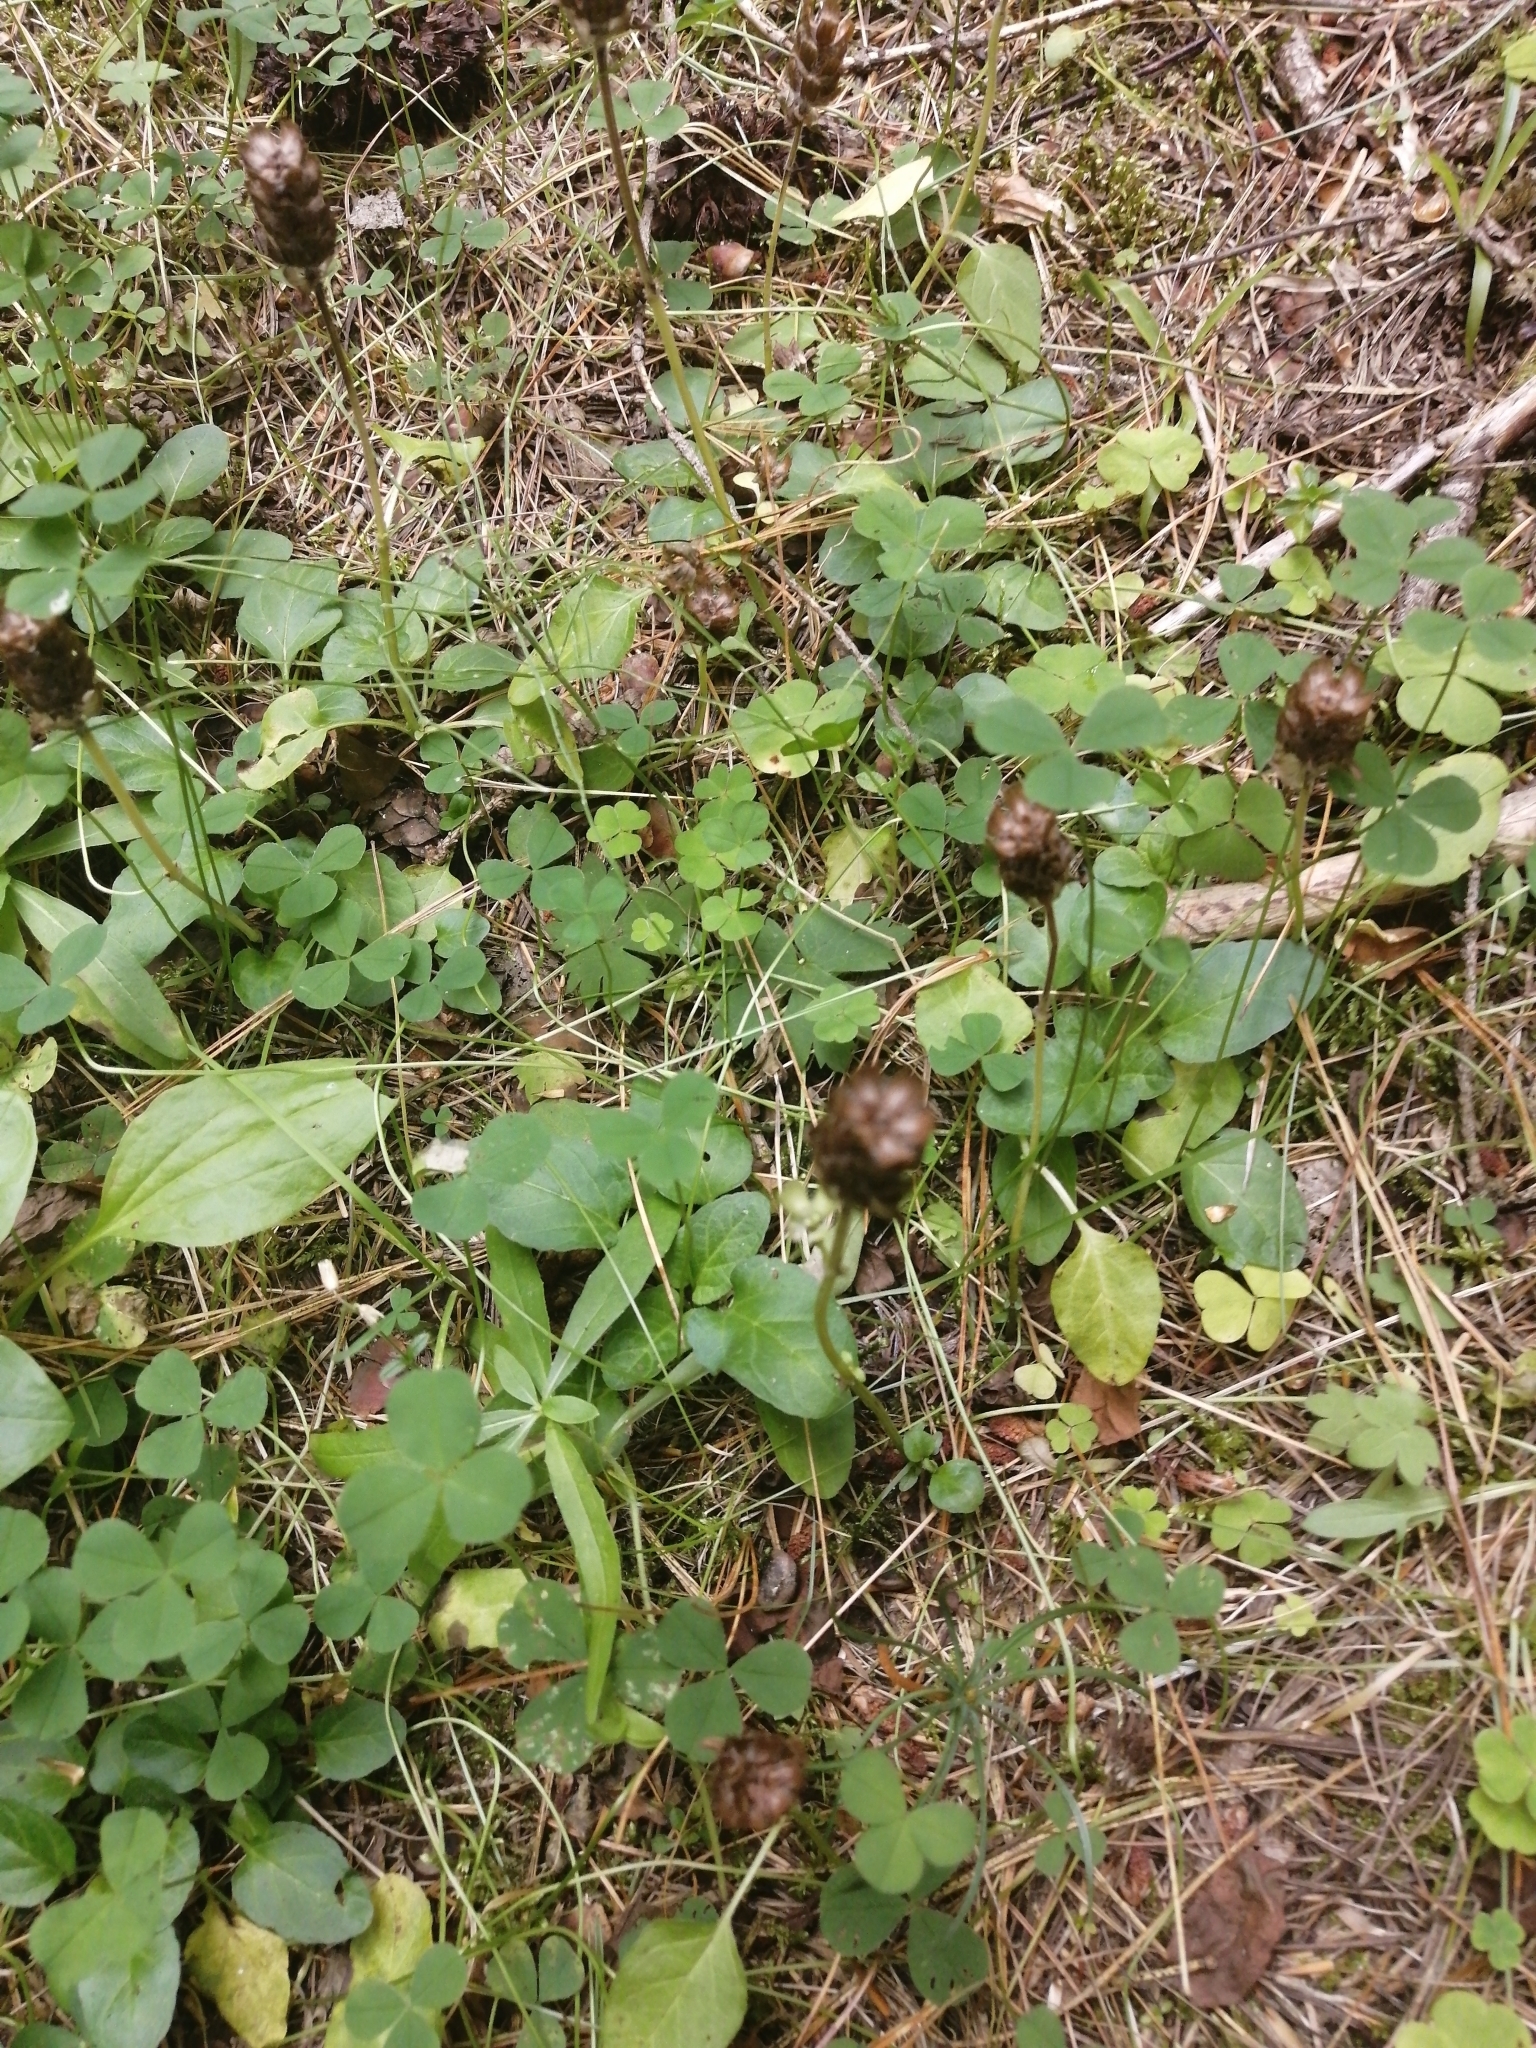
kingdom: Plantae
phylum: Tracheophyta
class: Magnoliopsida
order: Lamiales
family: Lamiaceae
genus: Prunella
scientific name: Prunella vulgaris
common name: Heal-all
